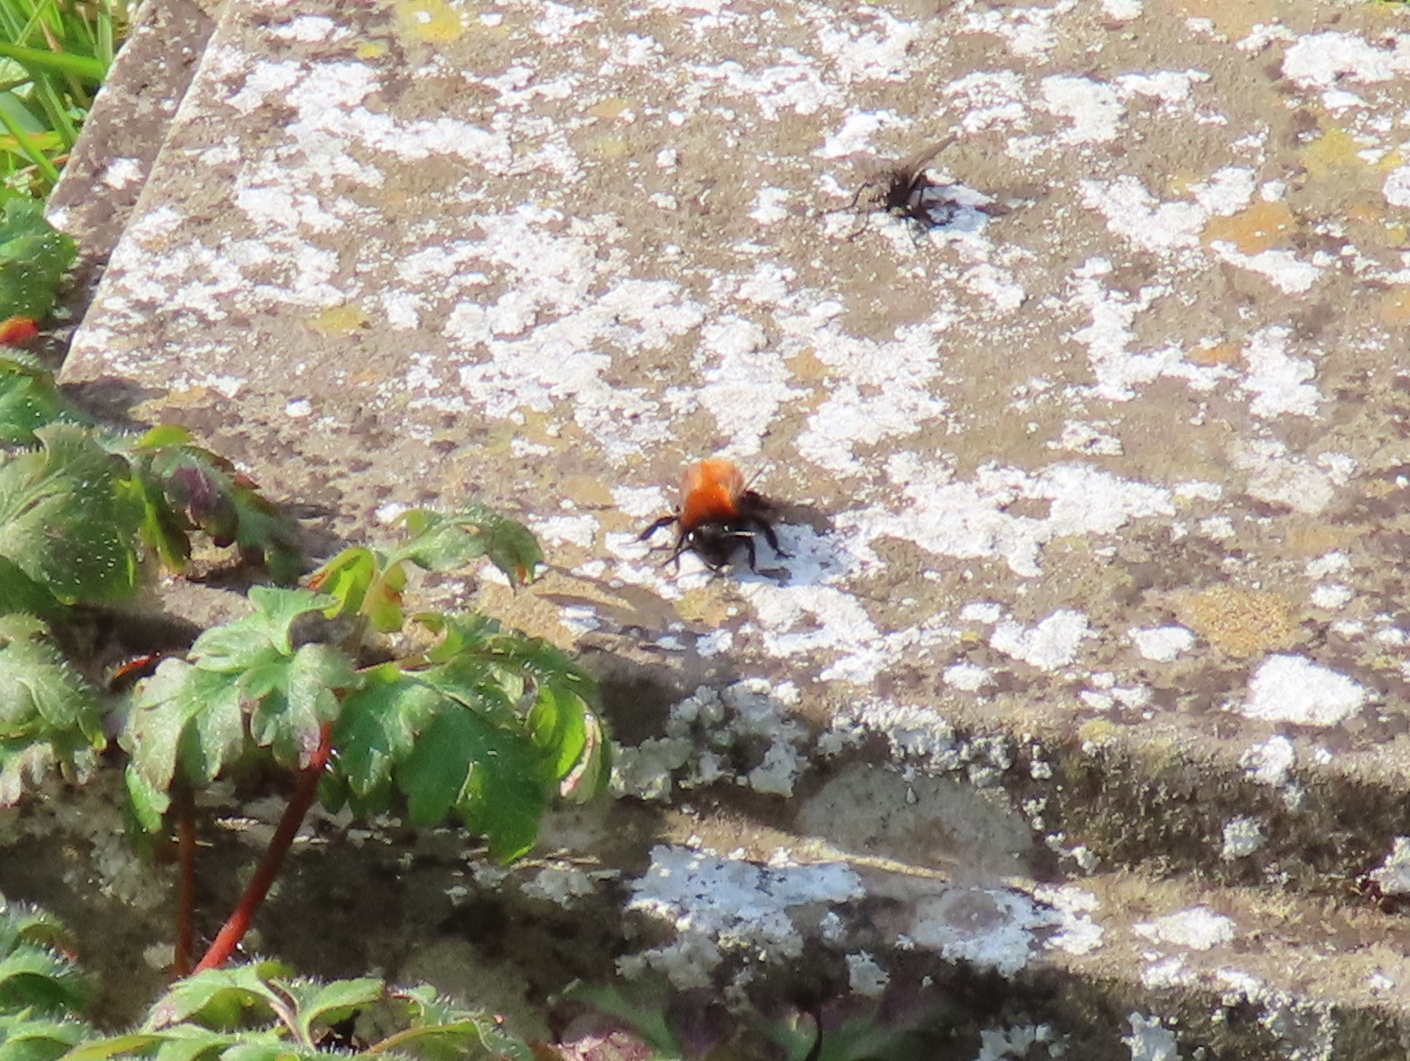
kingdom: Animalia
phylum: Arthropoda
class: Insecta
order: Hymenoptera
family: Andrenidae
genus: Andrena
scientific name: Andrena fulva
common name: Tawny mining bee
